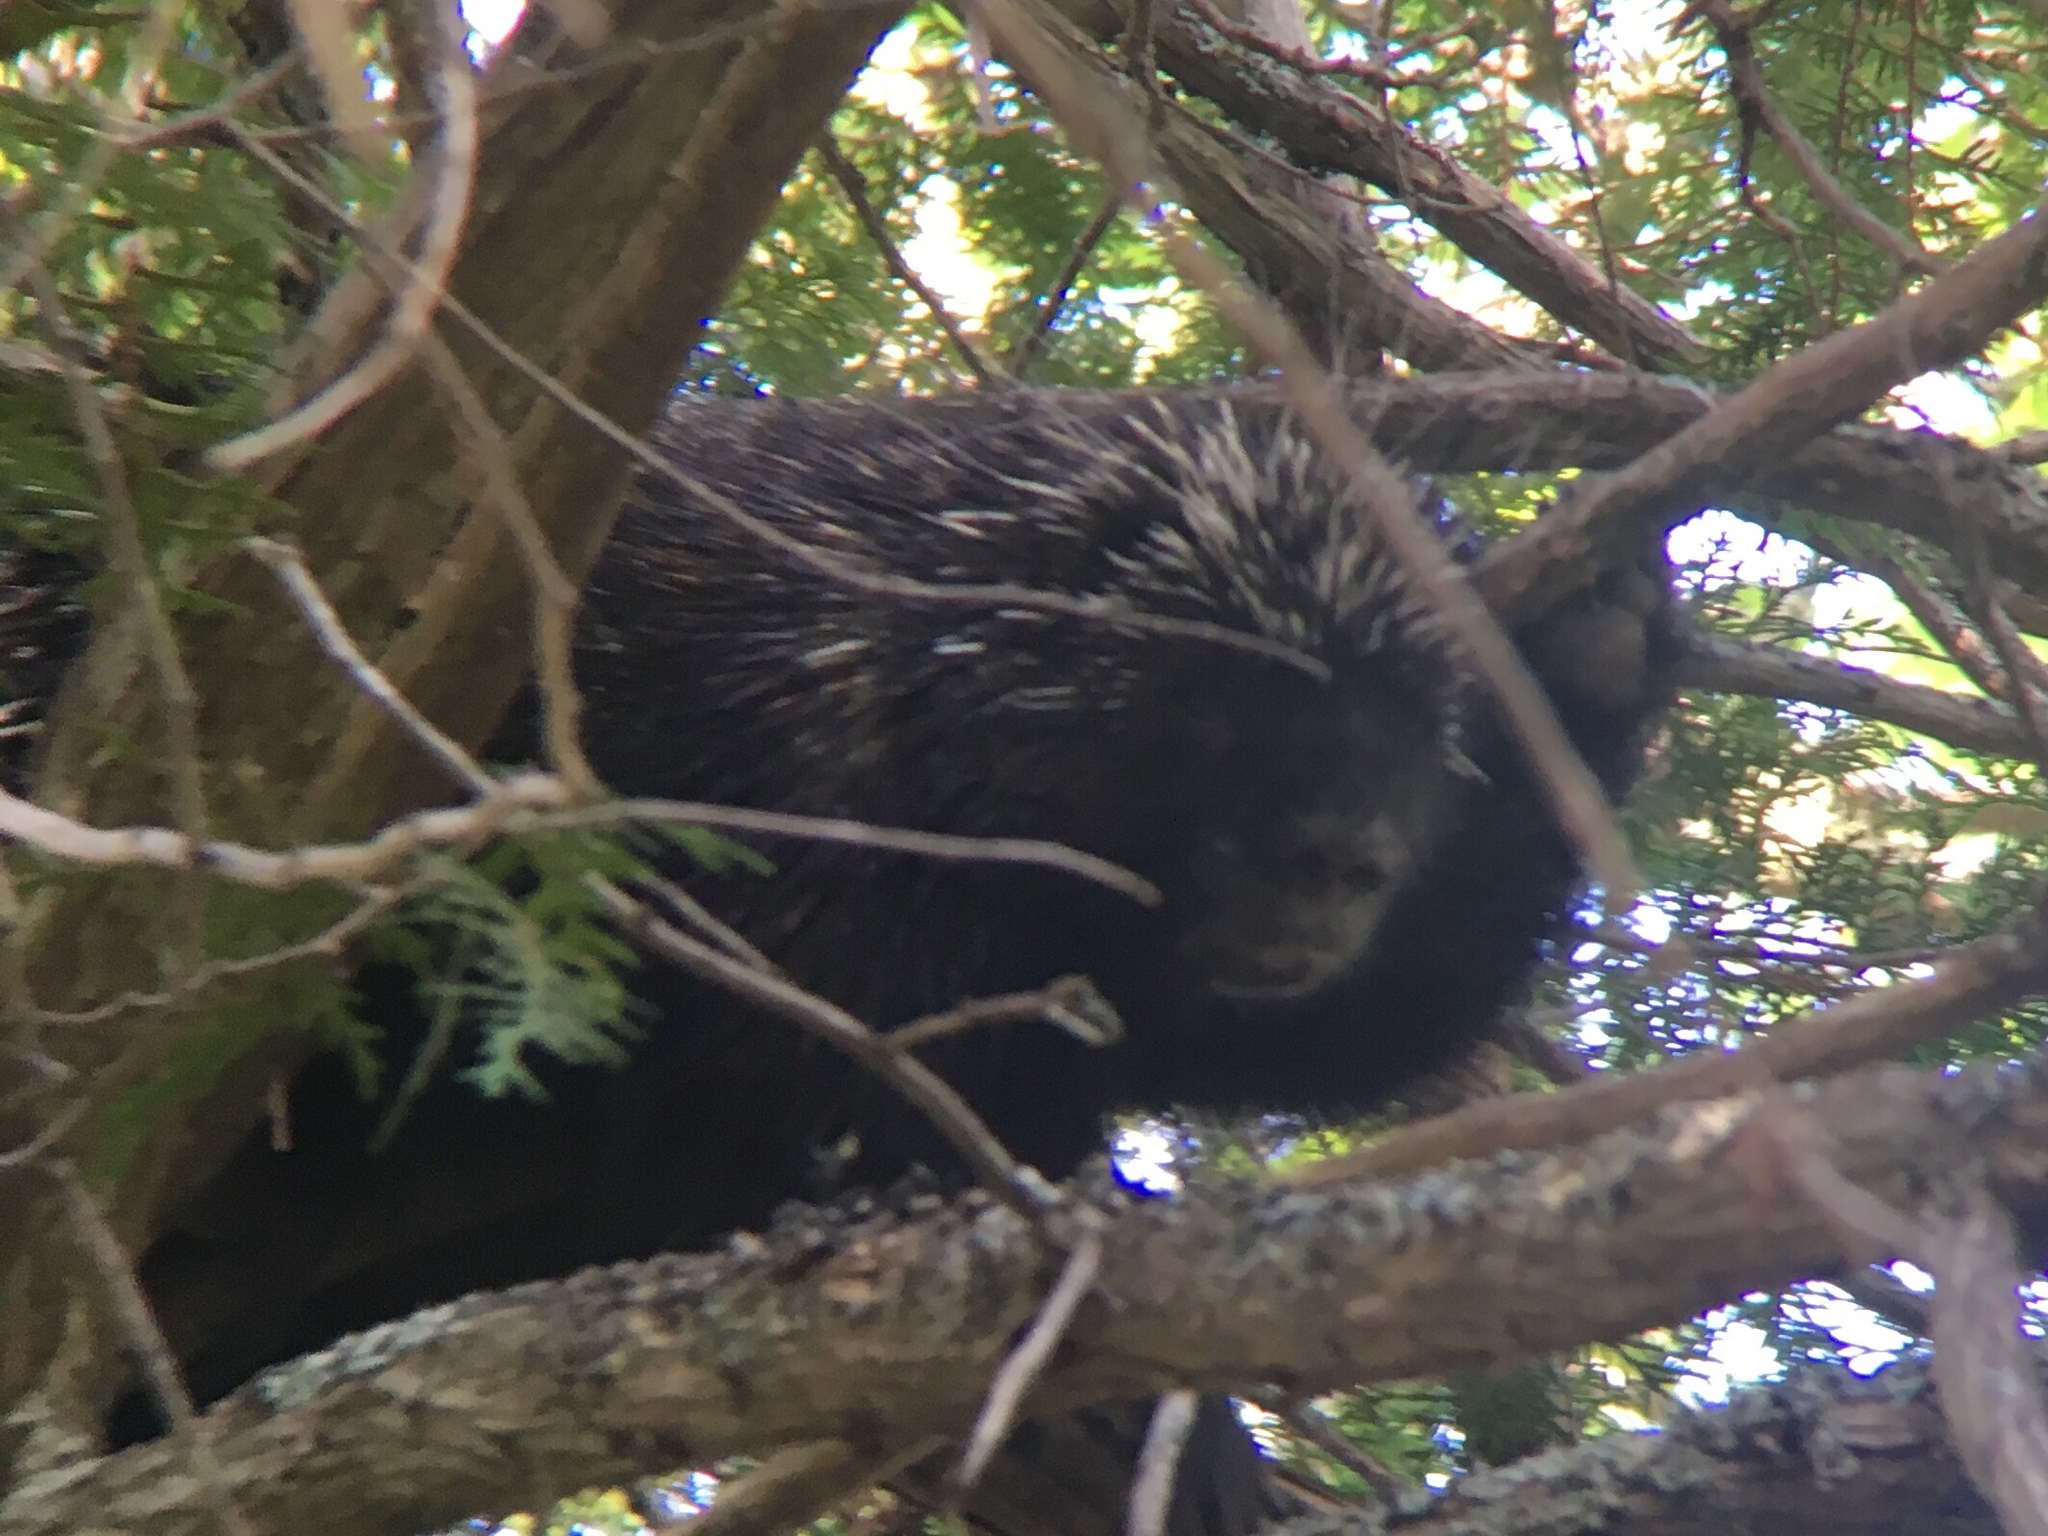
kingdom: Animalia
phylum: Chordata
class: Mammalia
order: Rodentia
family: Erethizontidae
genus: Erethizon
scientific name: Erethizon dorsatus
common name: North american porcupine
